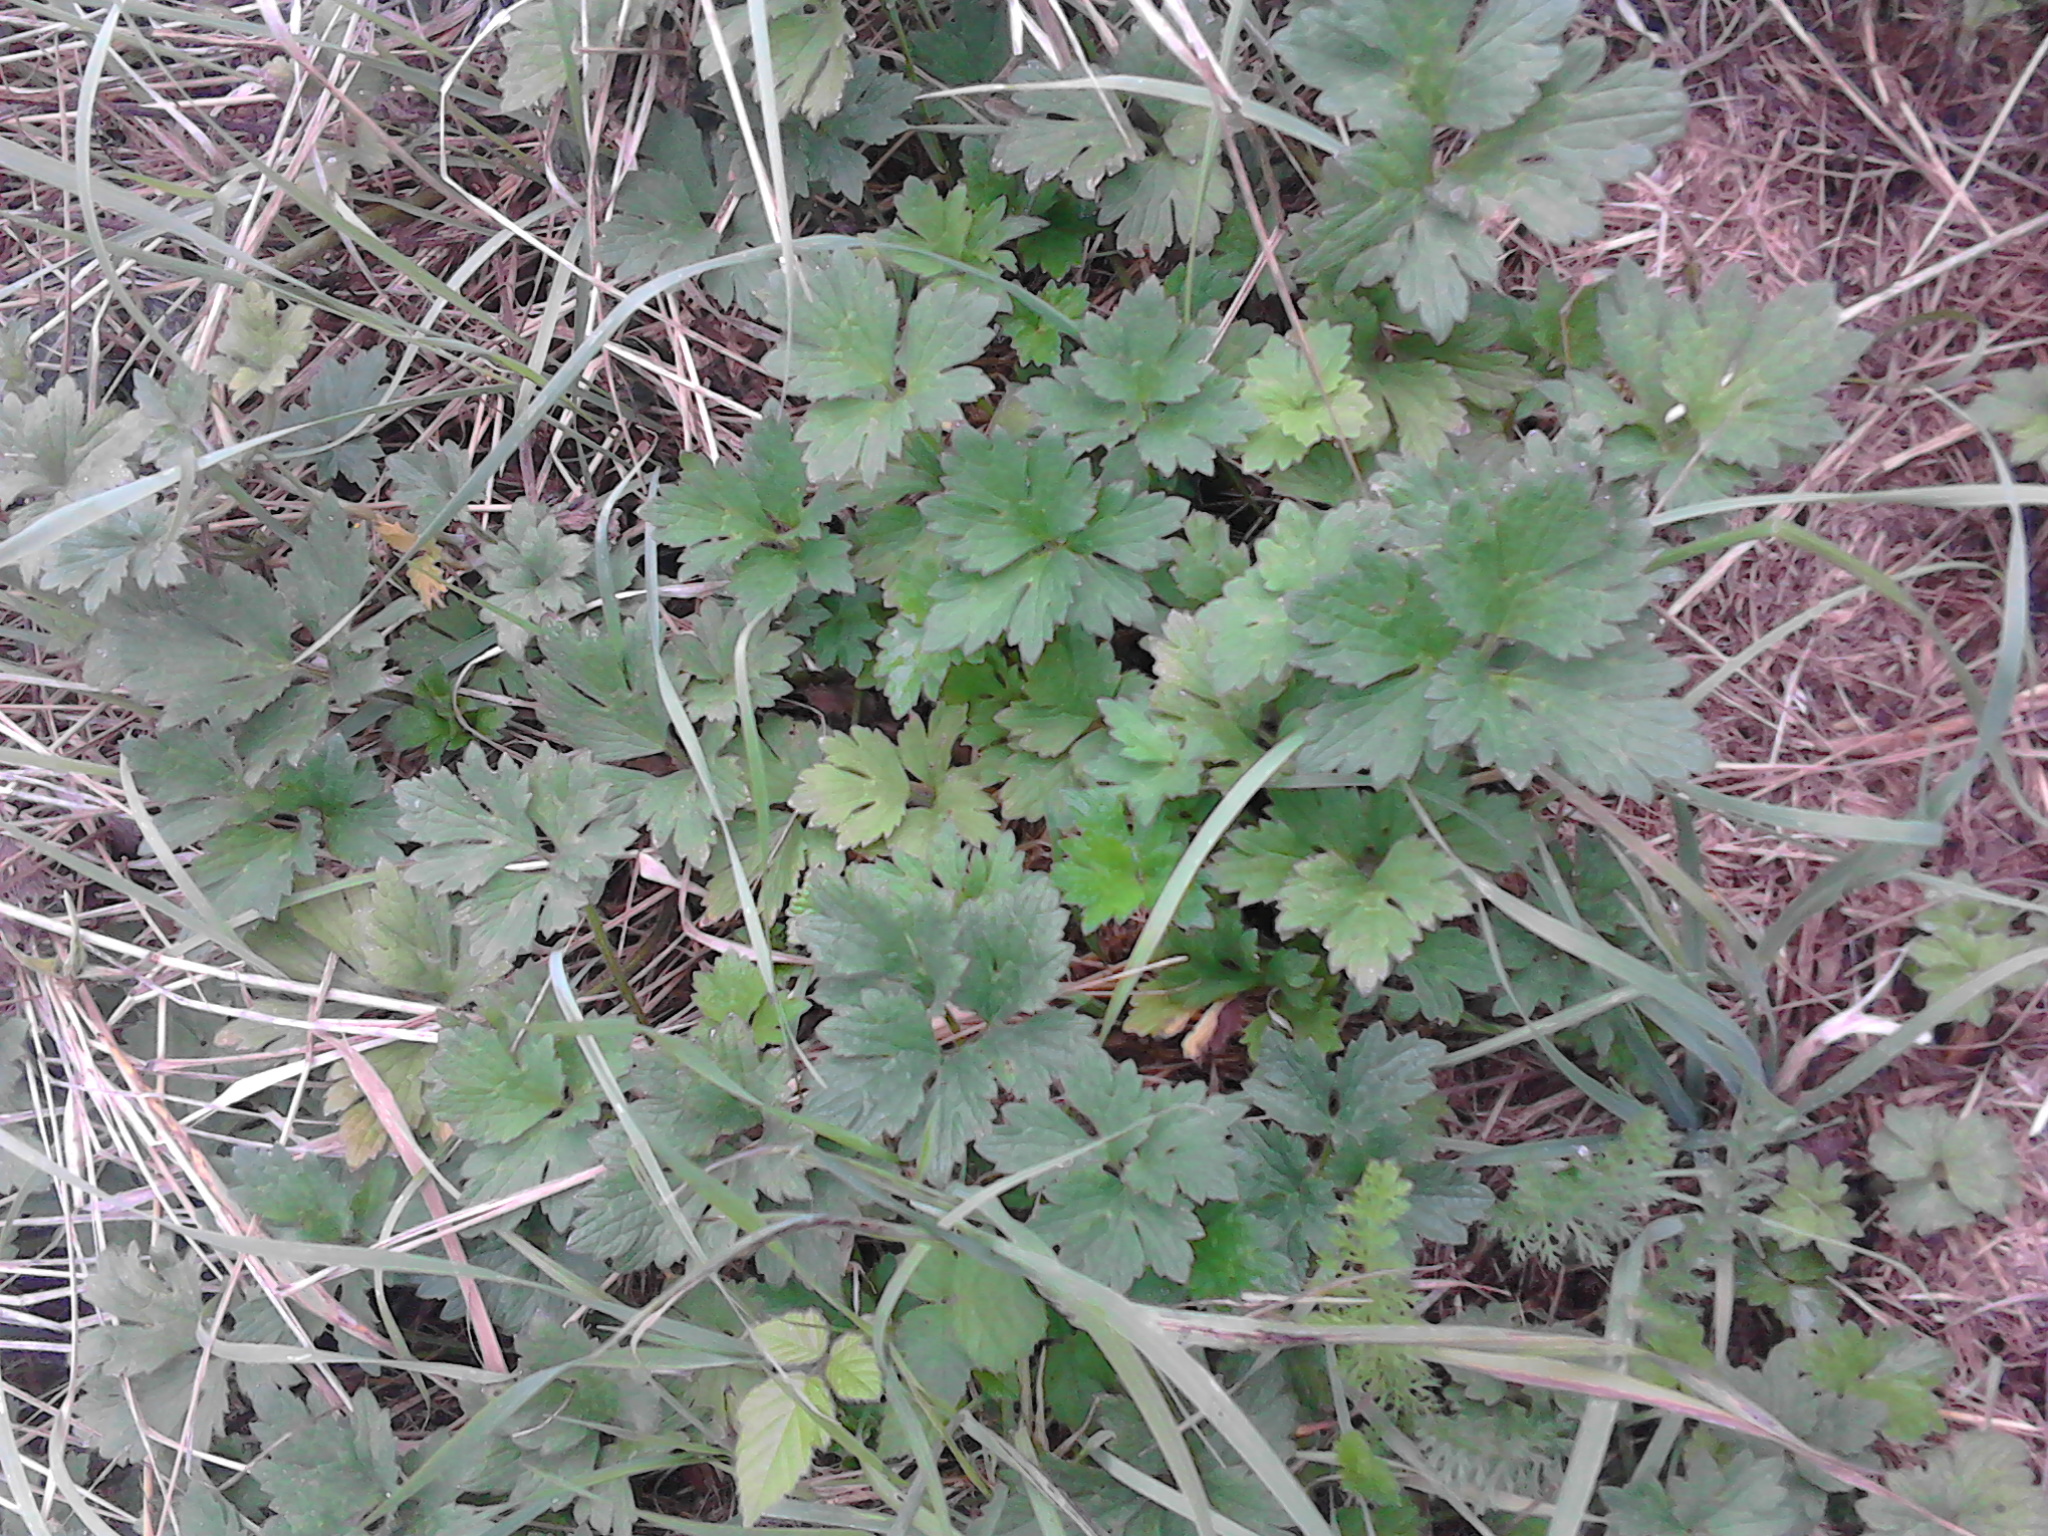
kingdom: Plantae
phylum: Tracheophyta
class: Magnoliopsida
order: Ranunculales
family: Ranunculaceae
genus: Ranunculus
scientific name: Ranunculus repens
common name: Creeping buttercup
